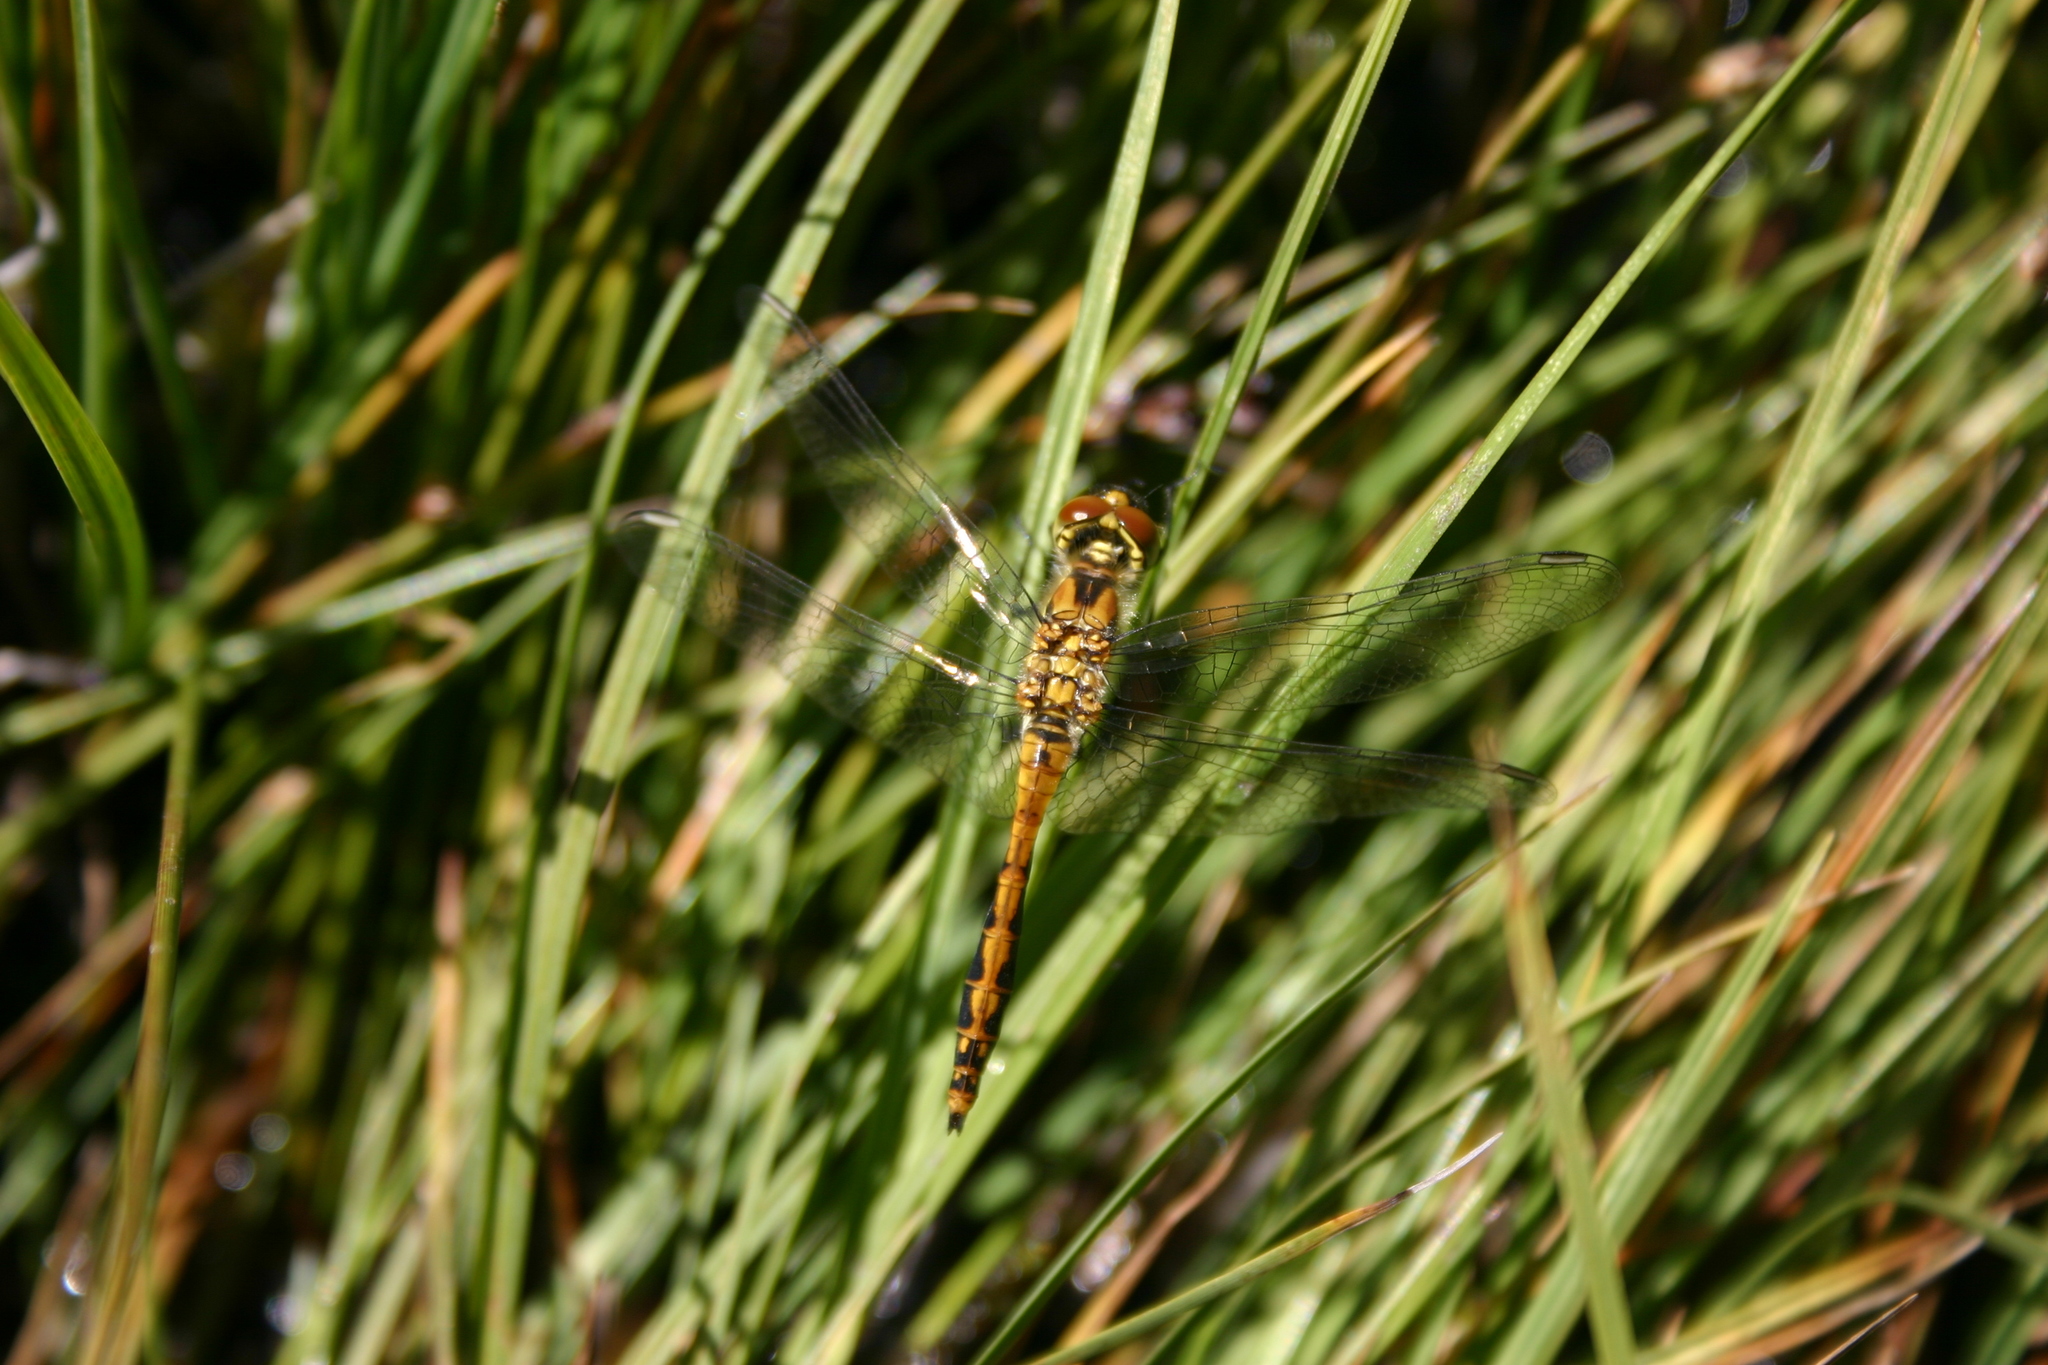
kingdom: Animalia
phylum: Arthropoda
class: Insecta
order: Odonata
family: Libellulidae
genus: Sympetrum
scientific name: Sympetrum danae
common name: Black darter
